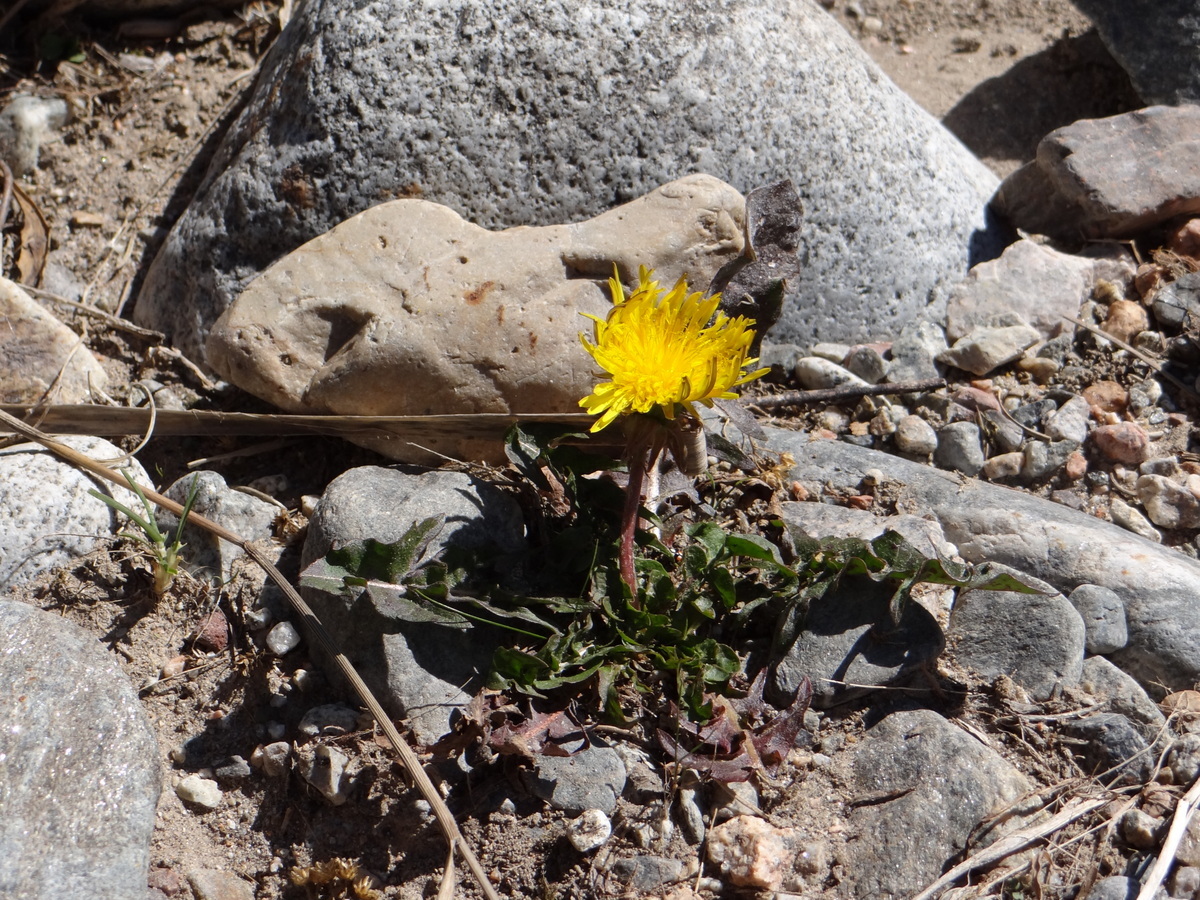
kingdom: Plantae
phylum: Tracheophyta
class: Magnoliopsida
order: Asterales
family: Asteraceae
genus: Taraxacum
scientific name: Taraxacum officinale
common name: Common dandelion
